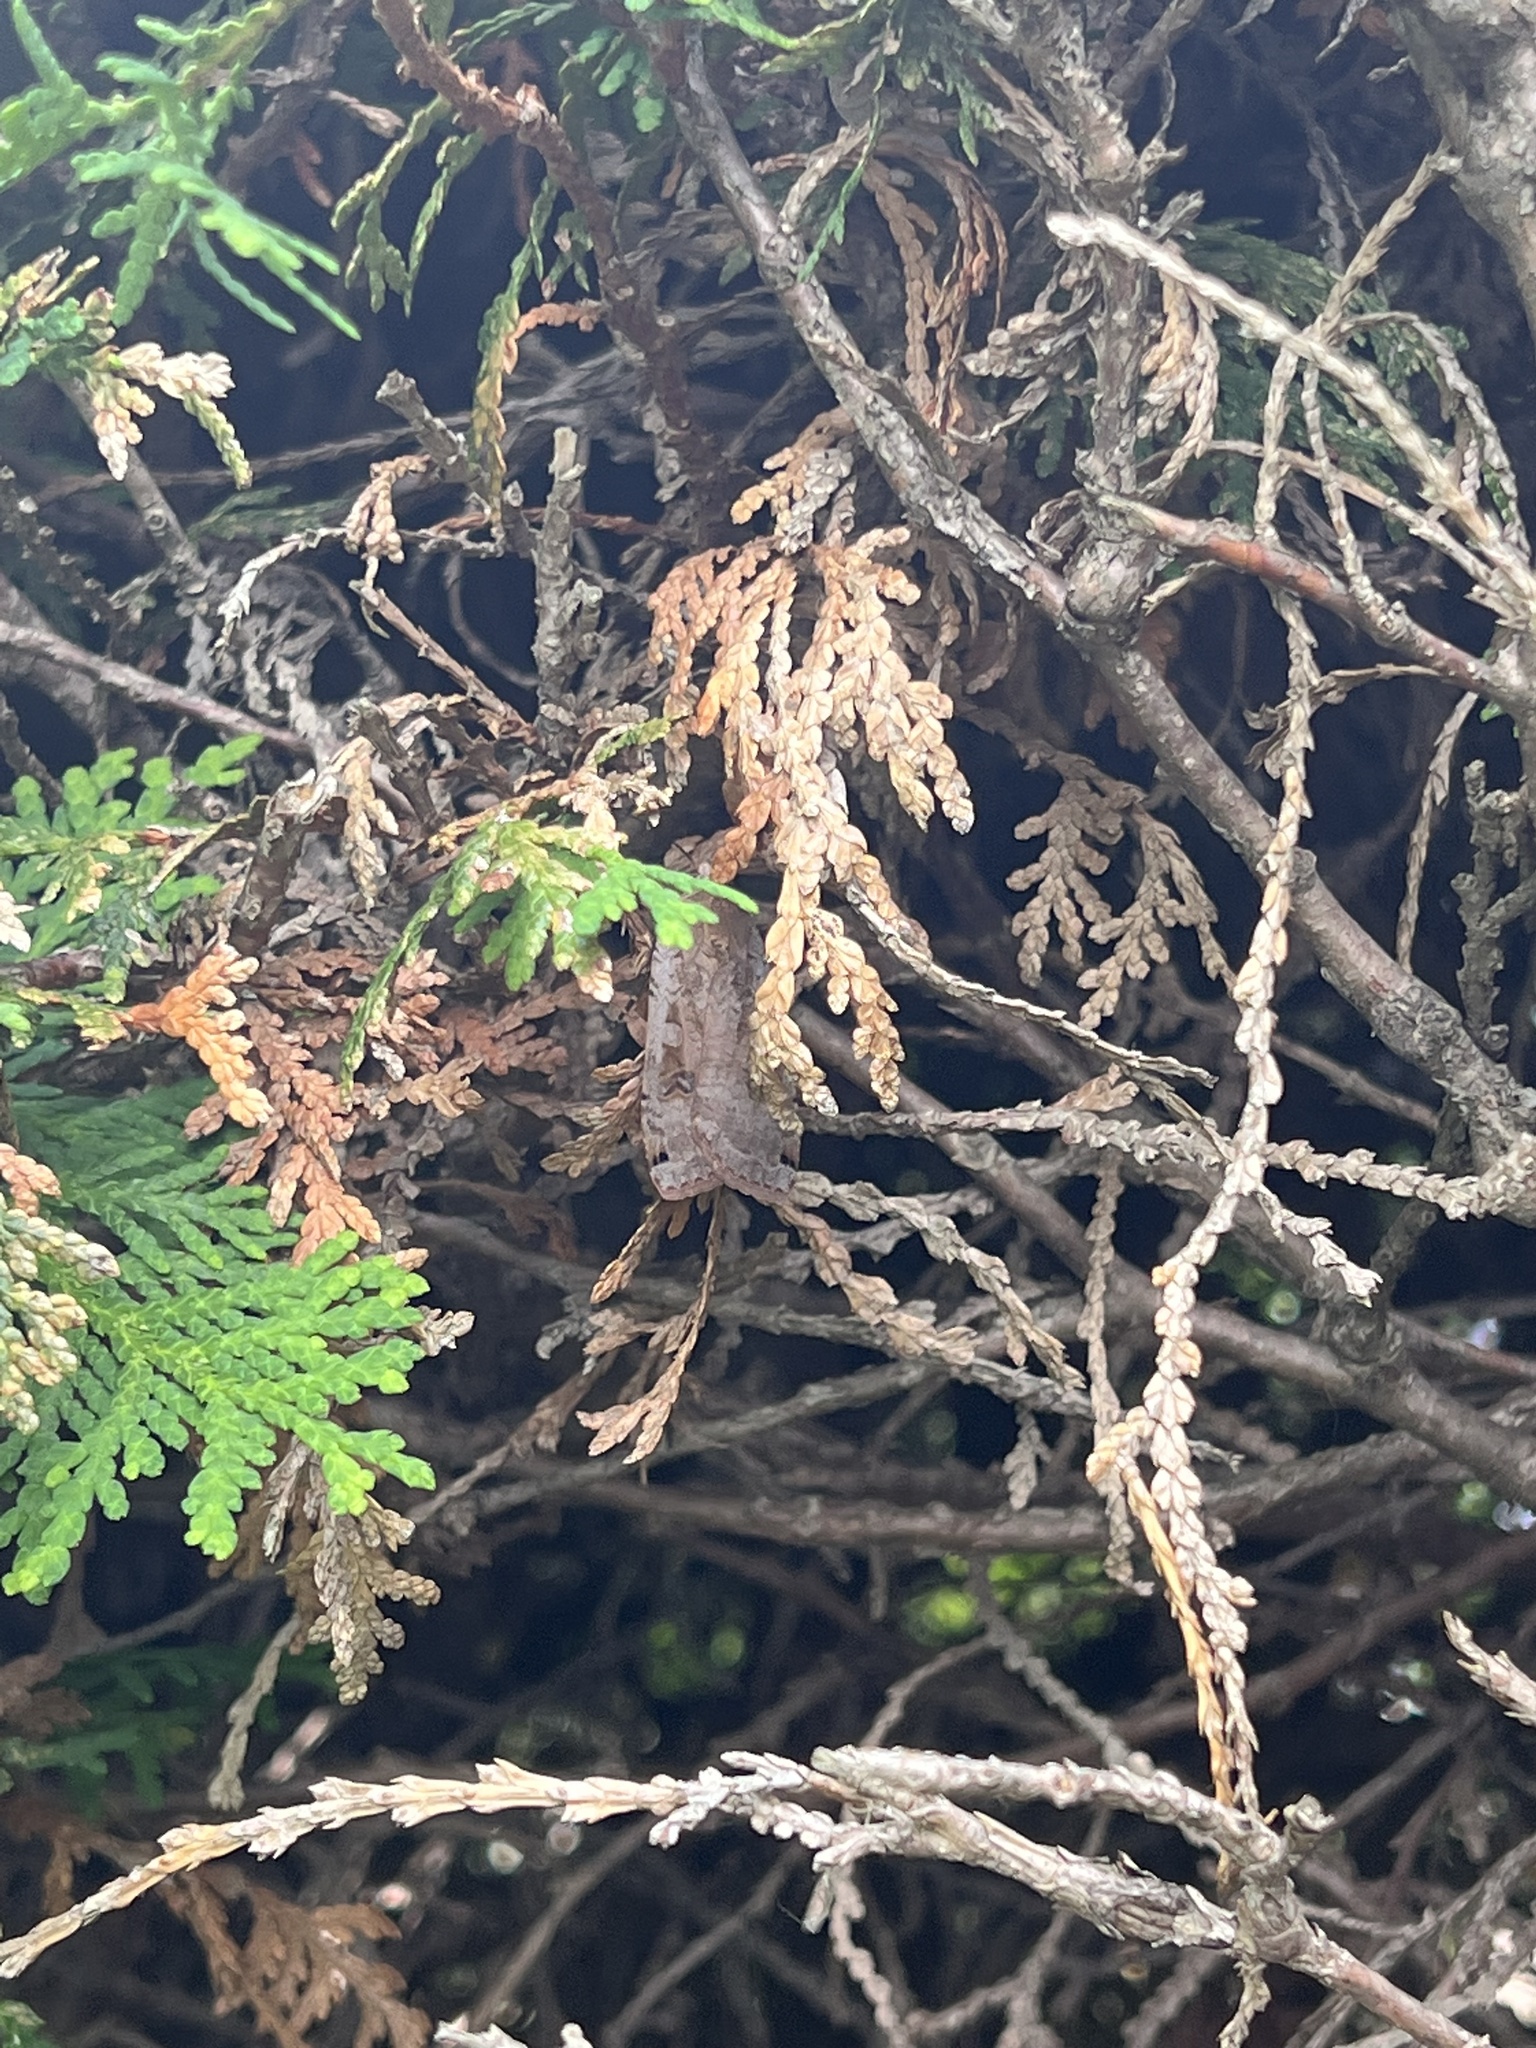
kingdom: Animalia
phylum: Arthropoda
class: Insecta
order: Lepidoptera
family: Noctuidae
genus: Noctua
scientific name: Noctua pronuba
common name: Large yellow underwing
